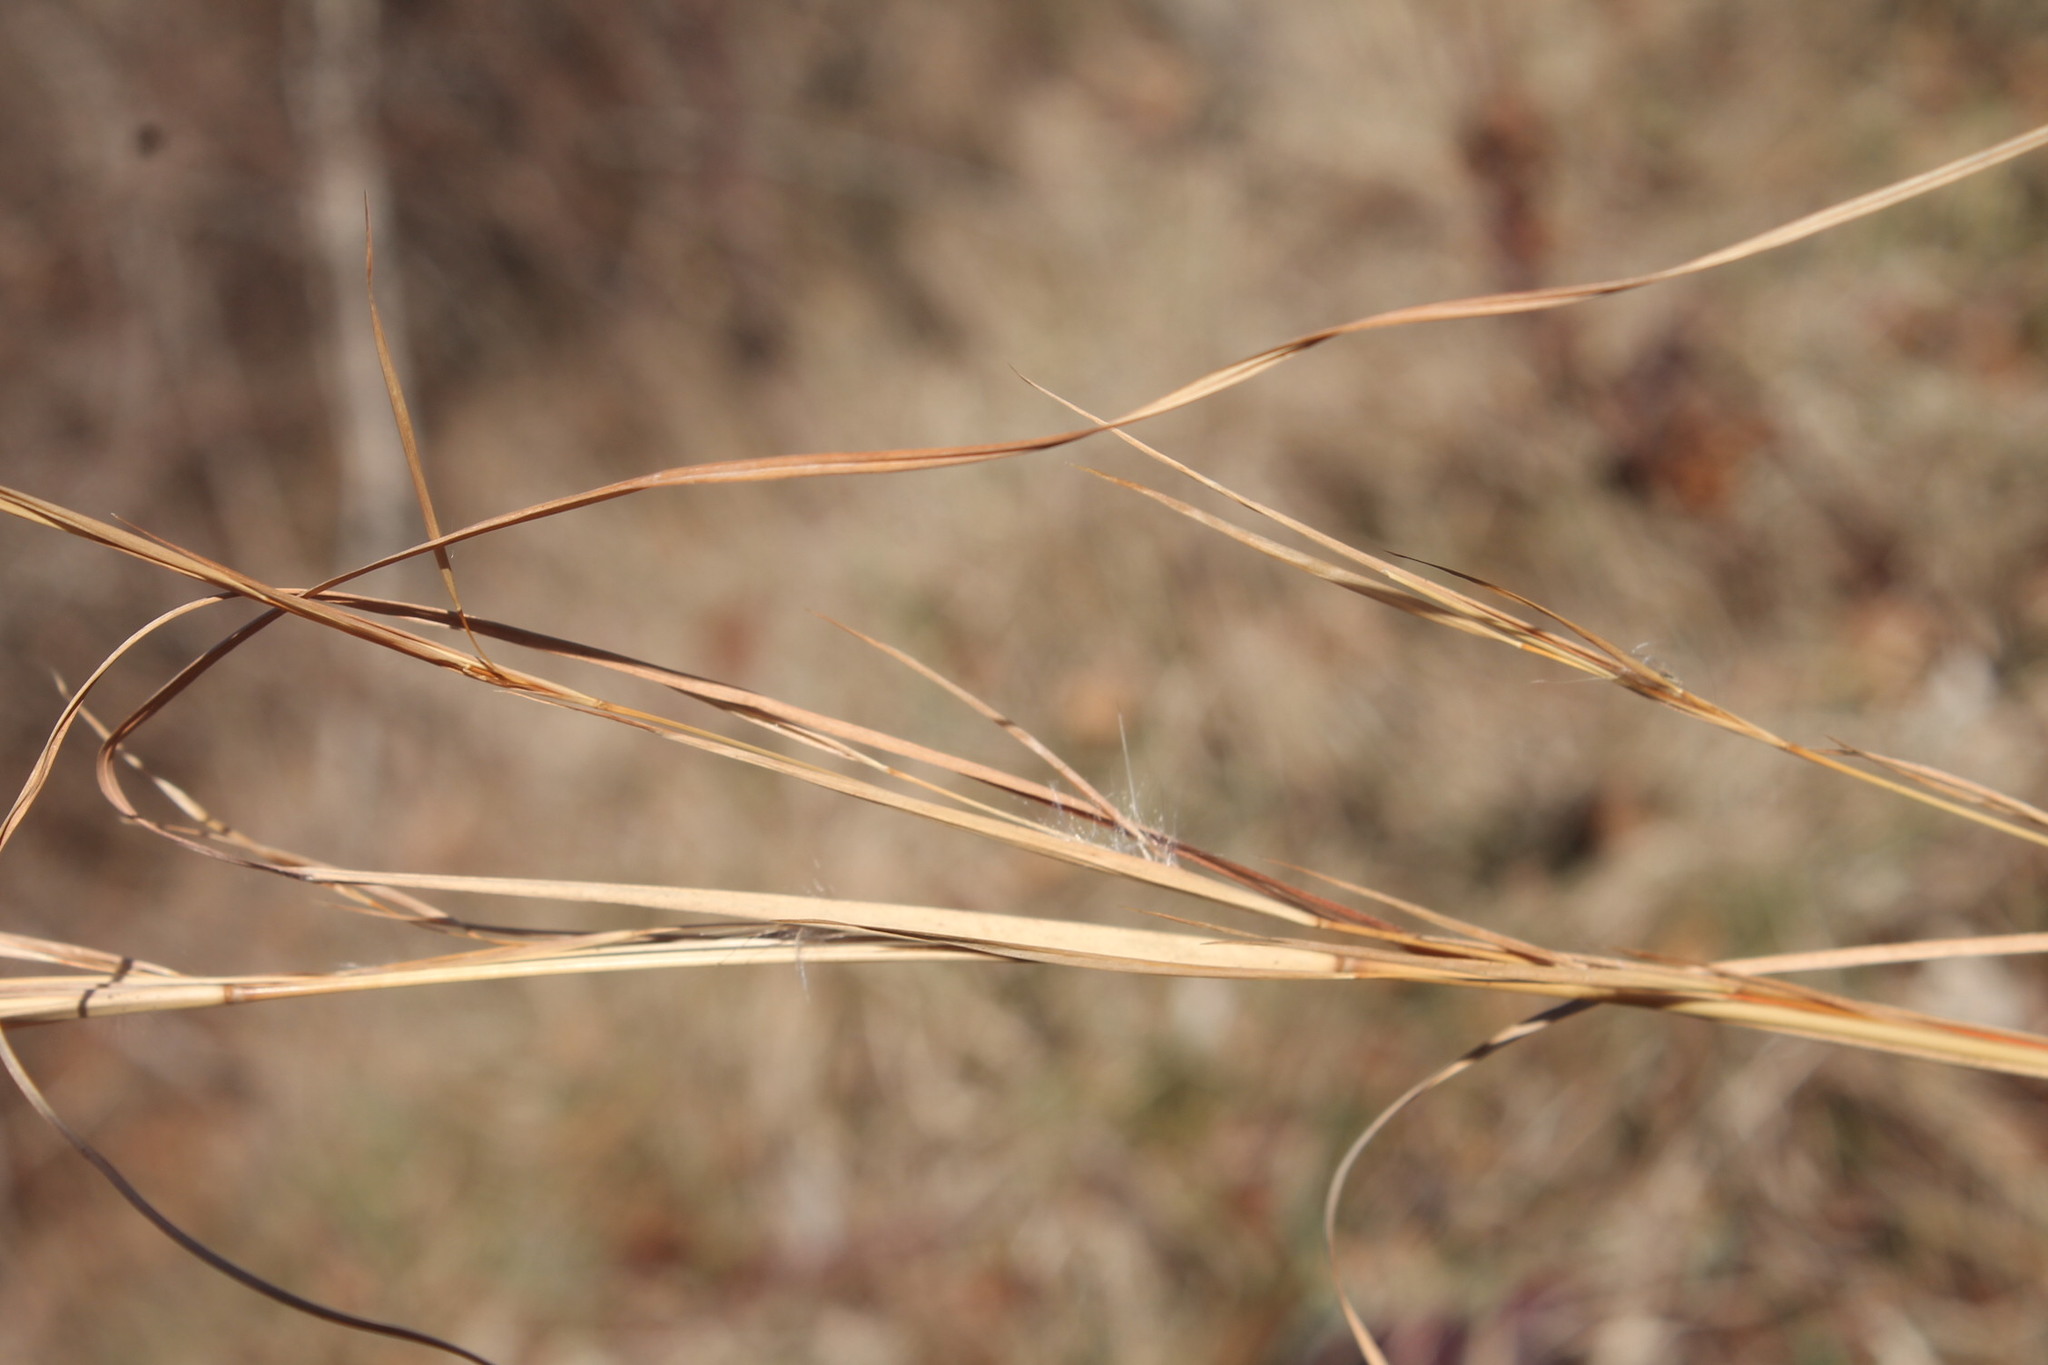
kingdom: Plantae
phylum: Tracheophyta
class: Liliopsida
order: Poales
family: Poaceae
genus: Andropogon
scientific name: Andropogon virginicus
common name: Broomsedge bluestem
